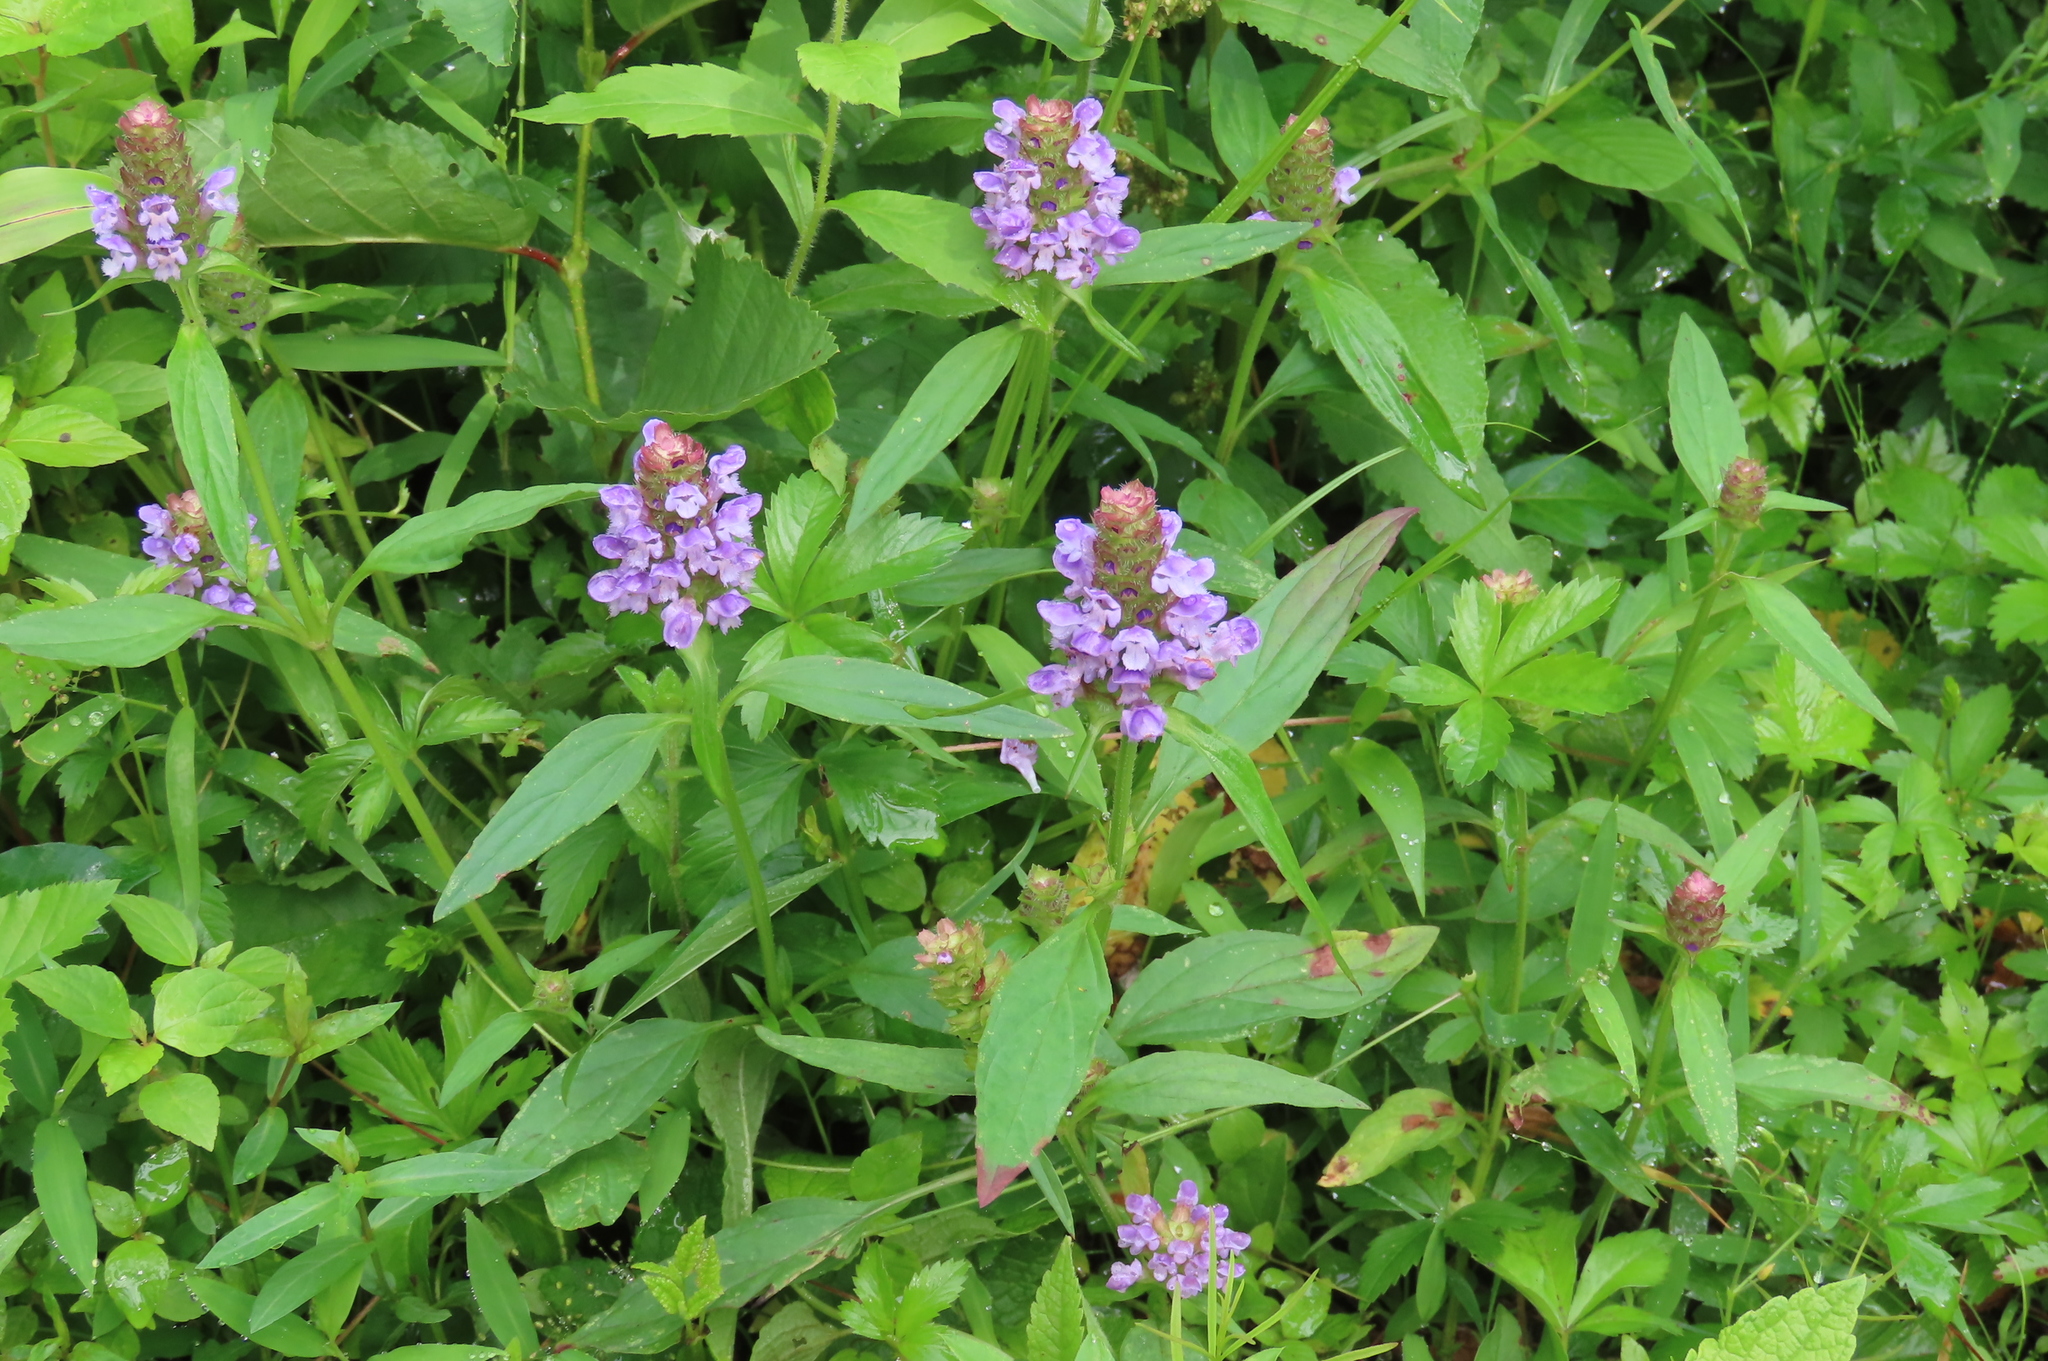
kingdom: Plantae
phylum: Tracheophyta
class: Magnoliopsida
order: Lamiales
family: Lamiaceae
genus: Prunella
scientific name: Prunella vulgaris
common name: Heal-all
